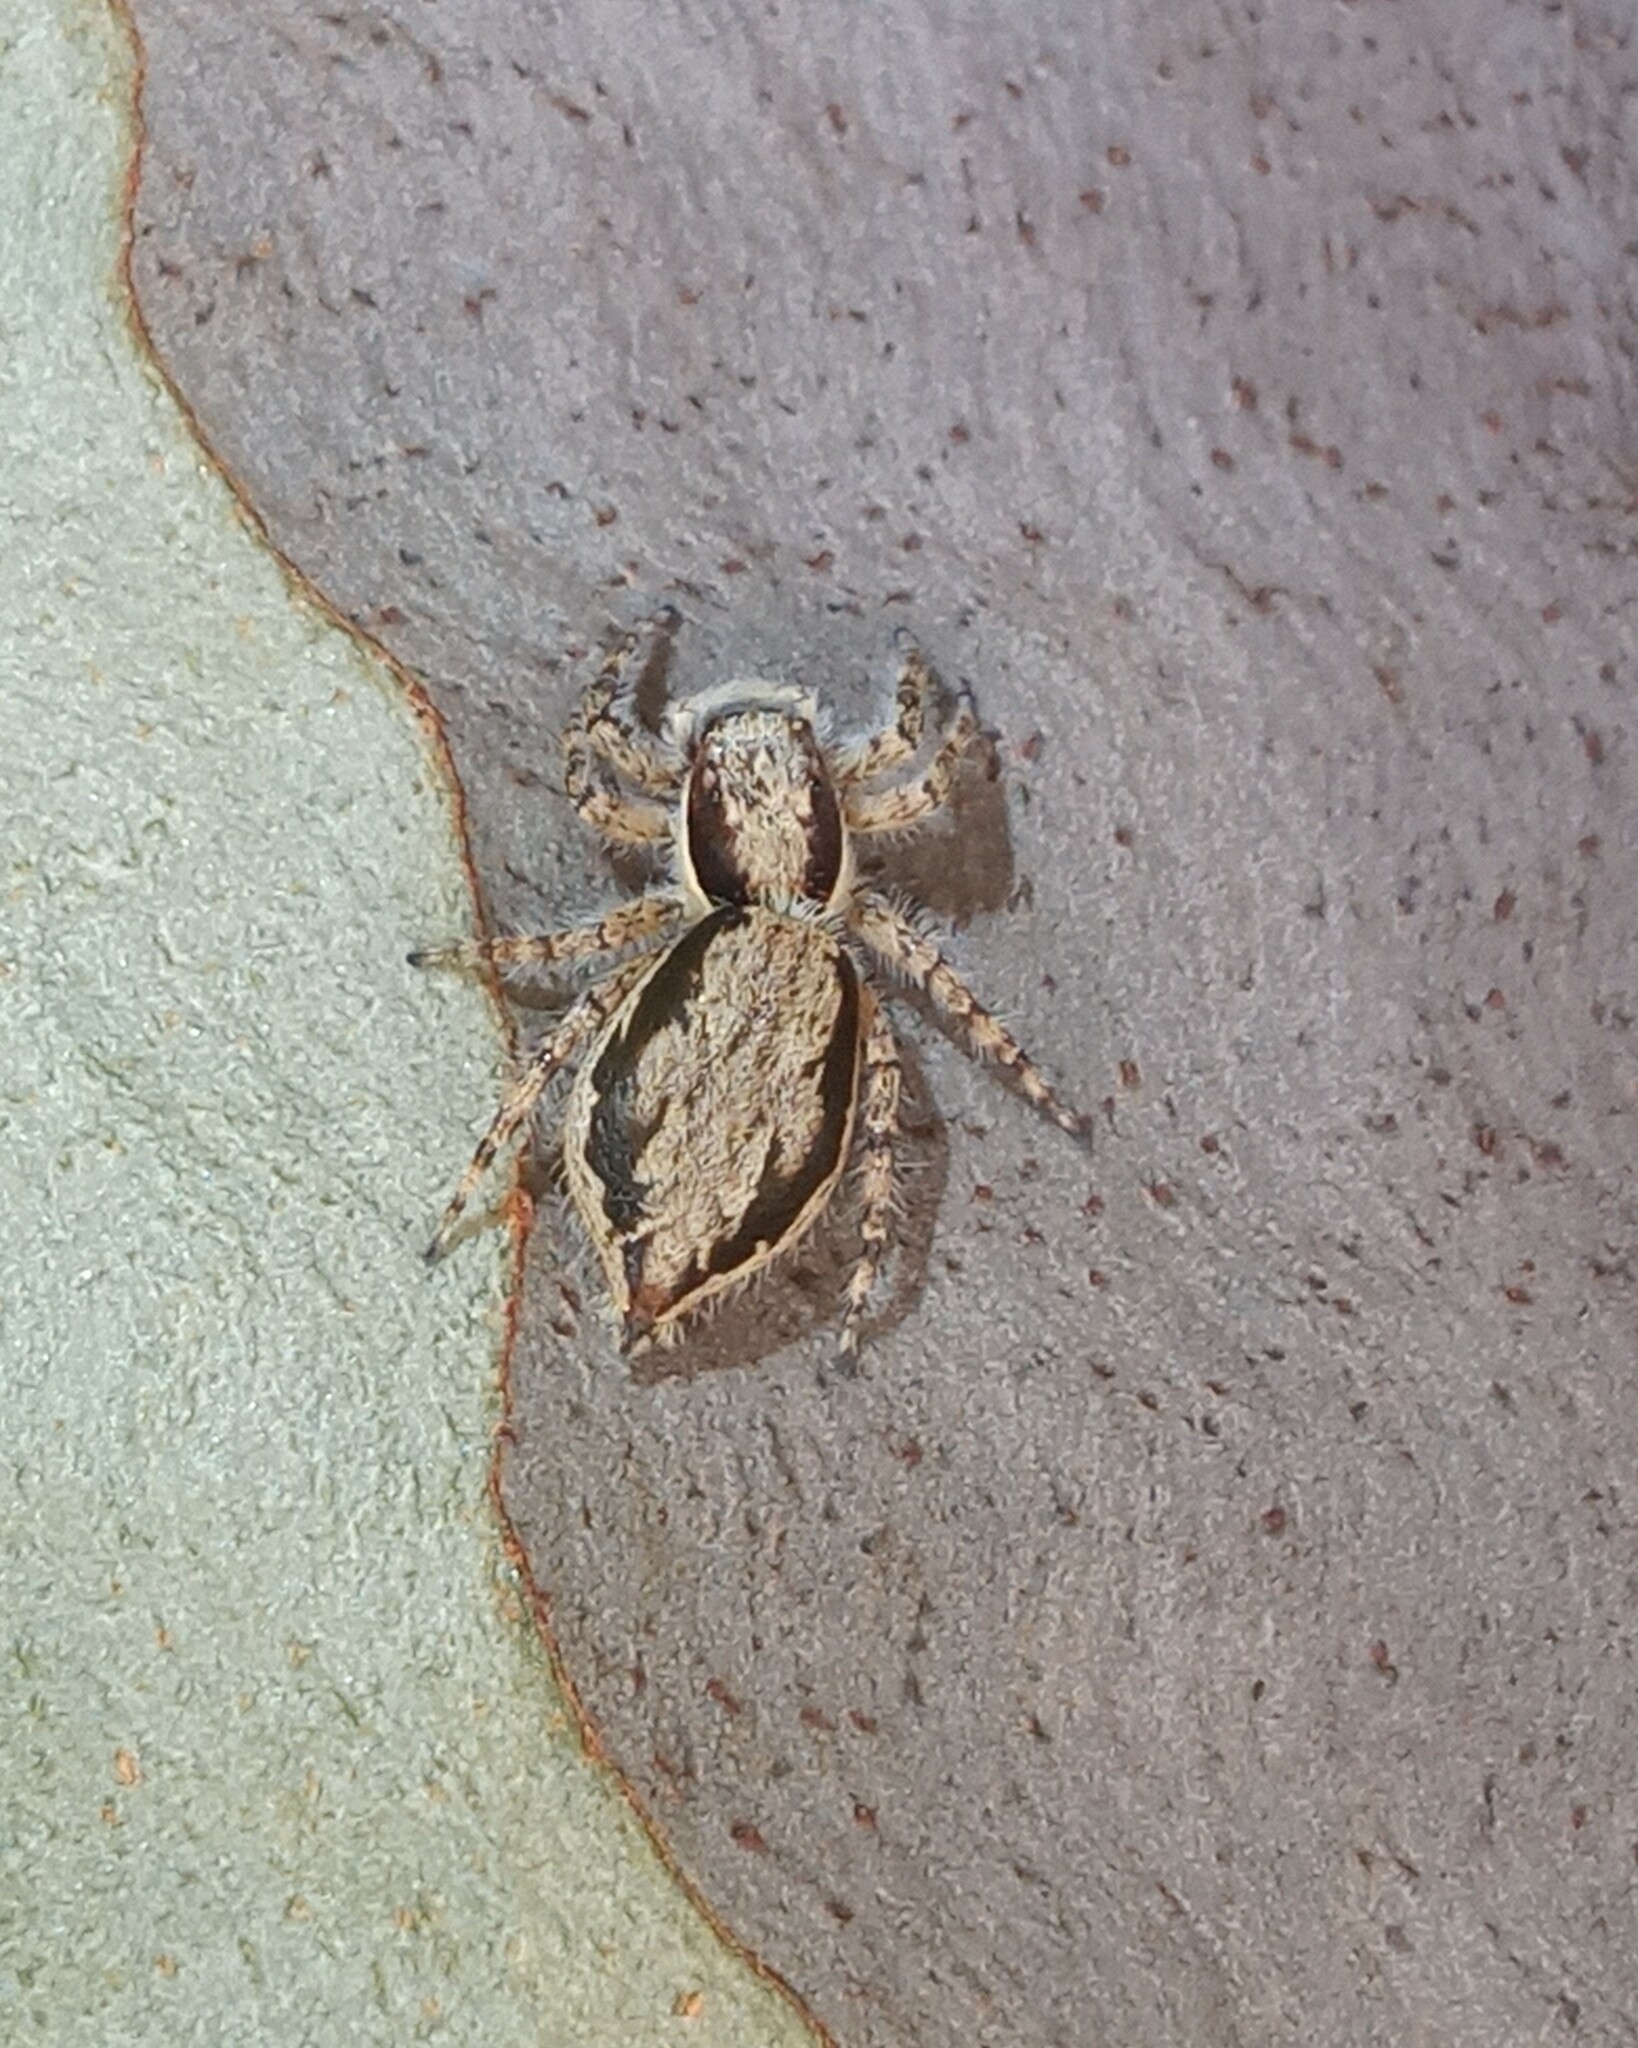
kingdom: Animalia
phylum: Arthropoda
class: Arachnida
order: Araneae
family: Salticidae
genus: Menemerus
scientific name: Menemerus bivittatus
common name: Gray wall jumper
